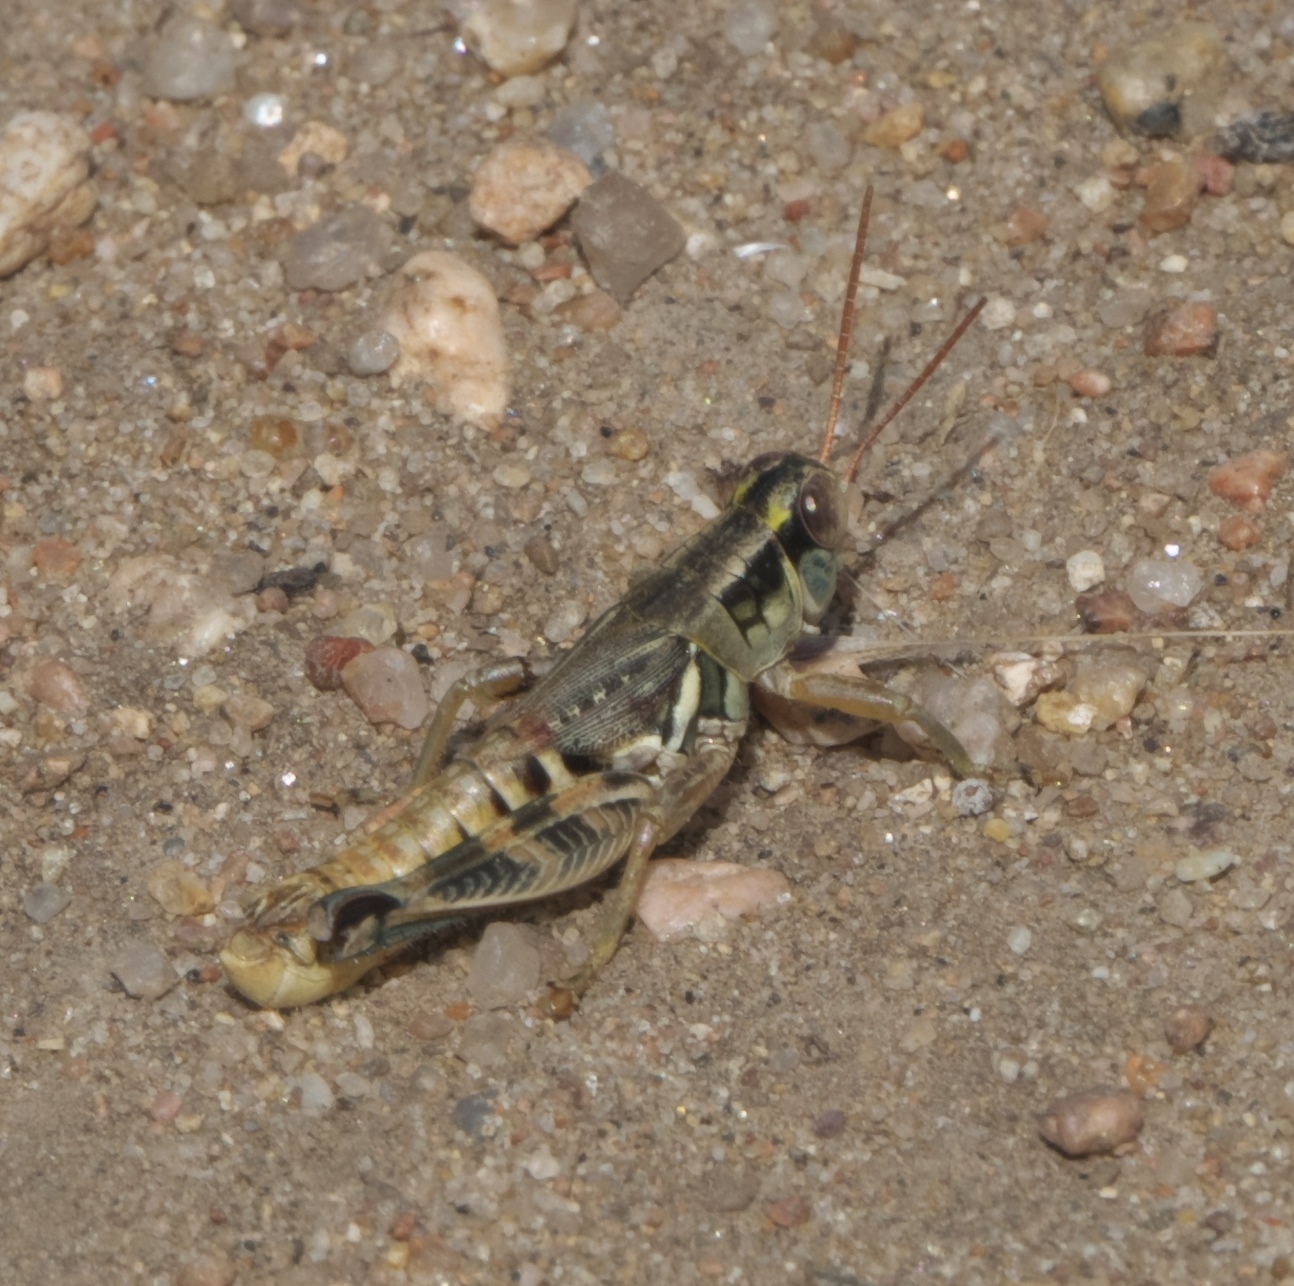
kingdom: Animalia
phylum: Arthropoda
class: Insecta
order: Orthoptera
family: Acrididae
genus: Melanoplus
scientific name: Melanoplus lakinus
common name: Lakin grasshopper
